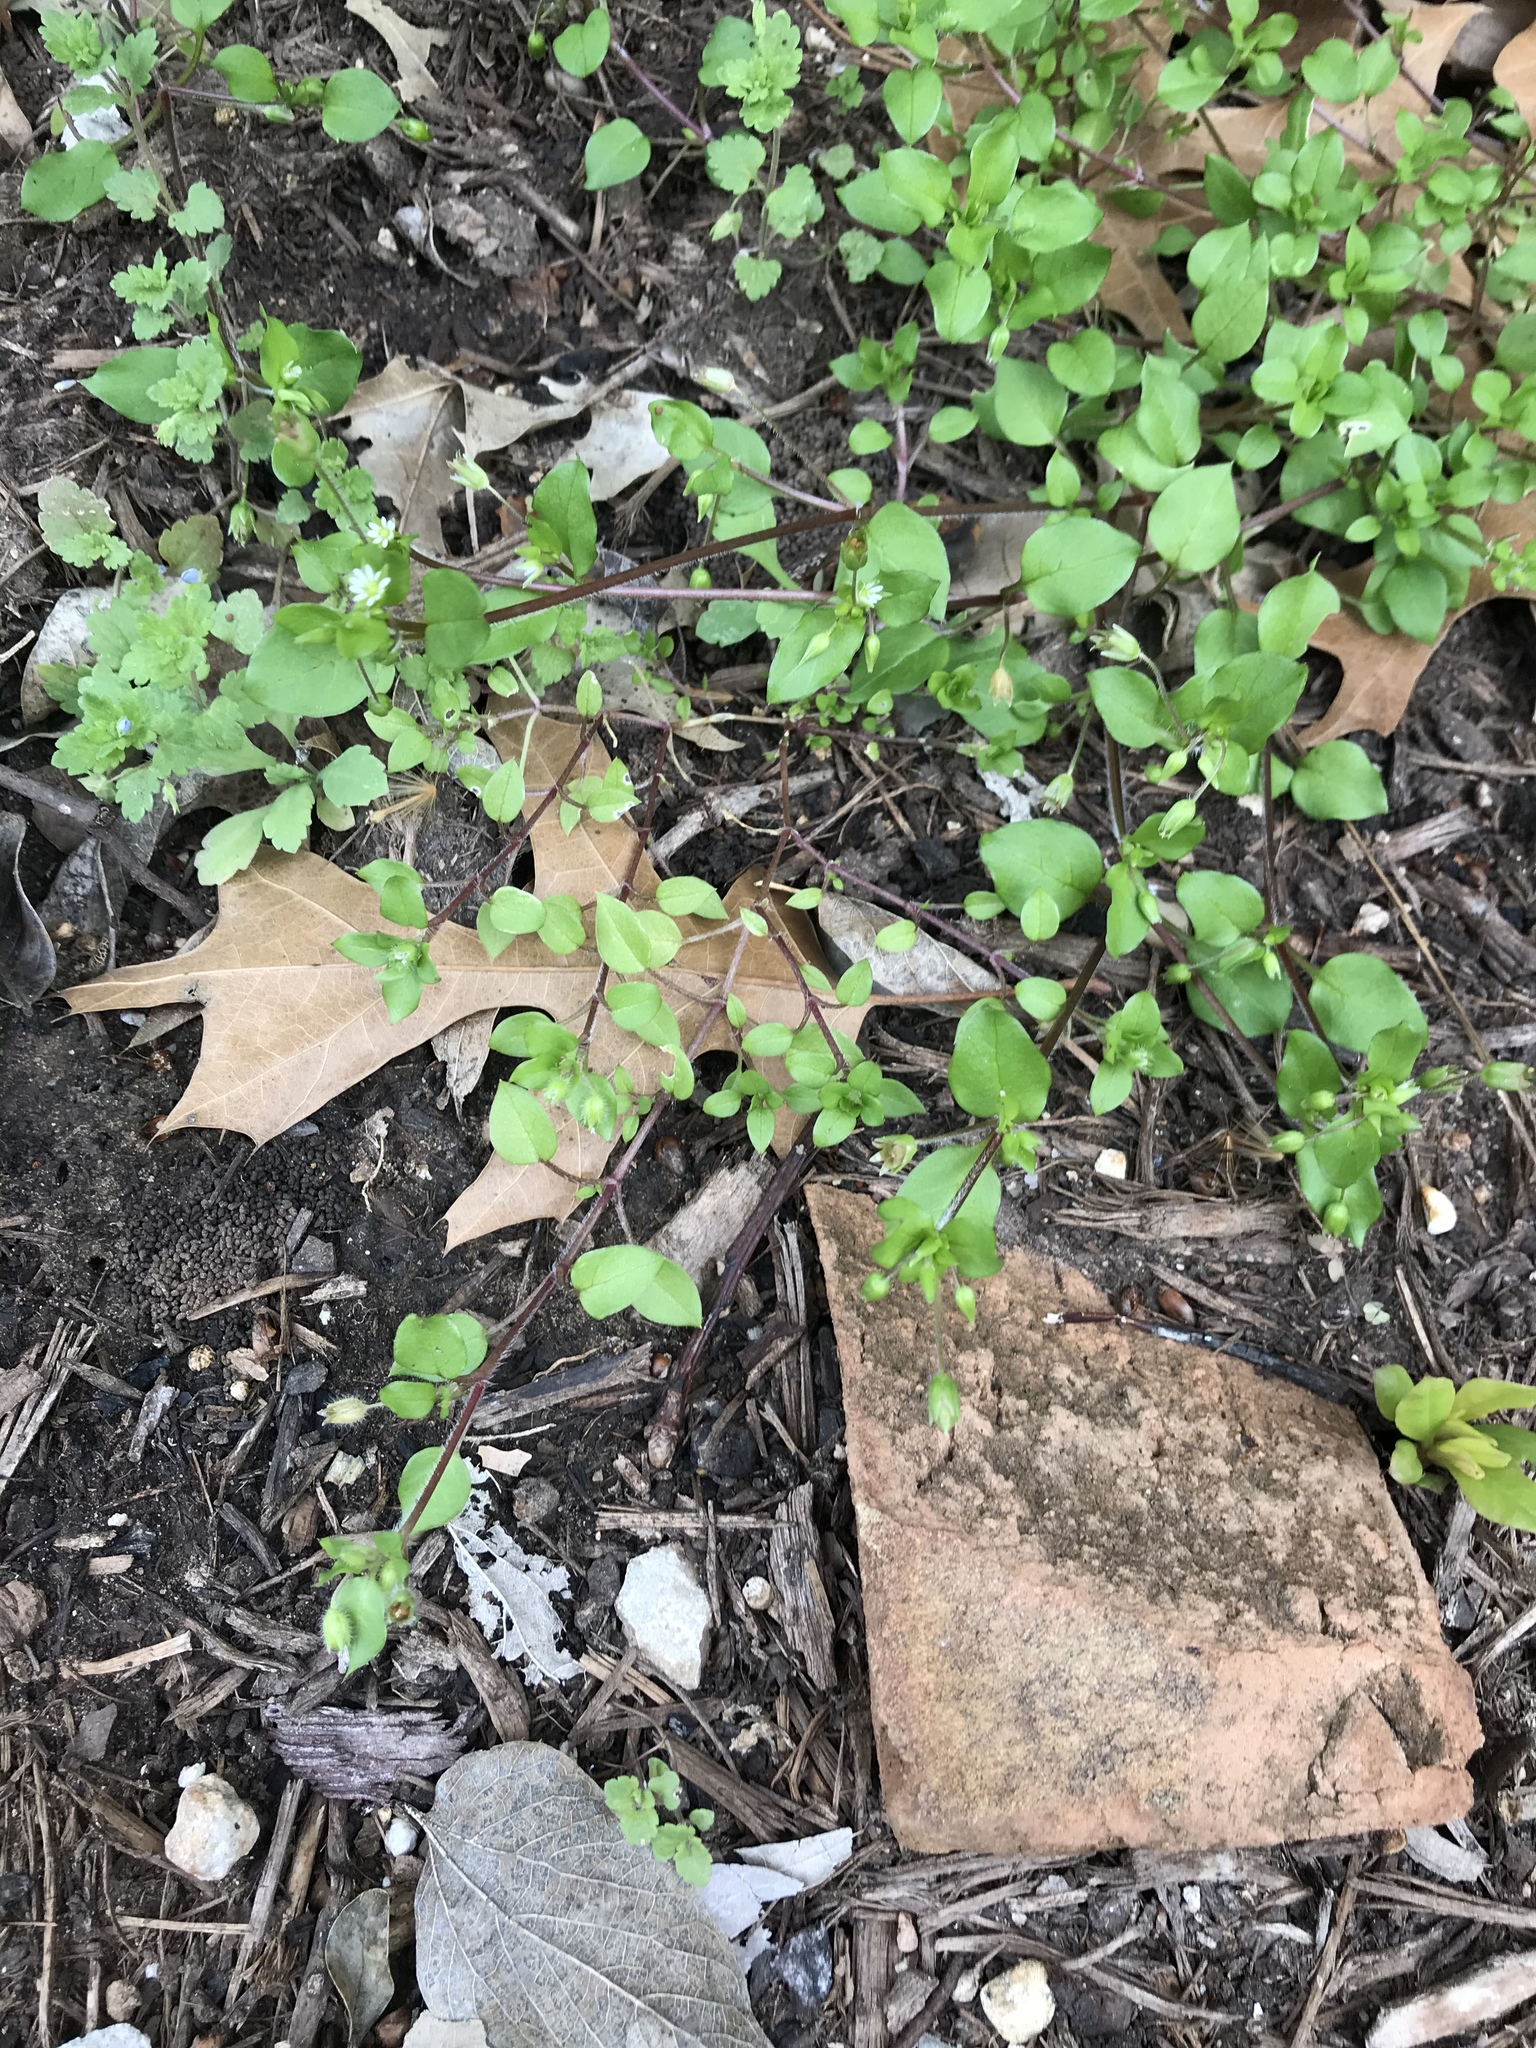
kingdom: Plantae
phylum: Tracheophyta
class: Magnoliopsida
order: Caryophyllales
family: Caryophyllaceae
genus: Stellaria
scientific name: Stellaria media
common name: Common chickweed
